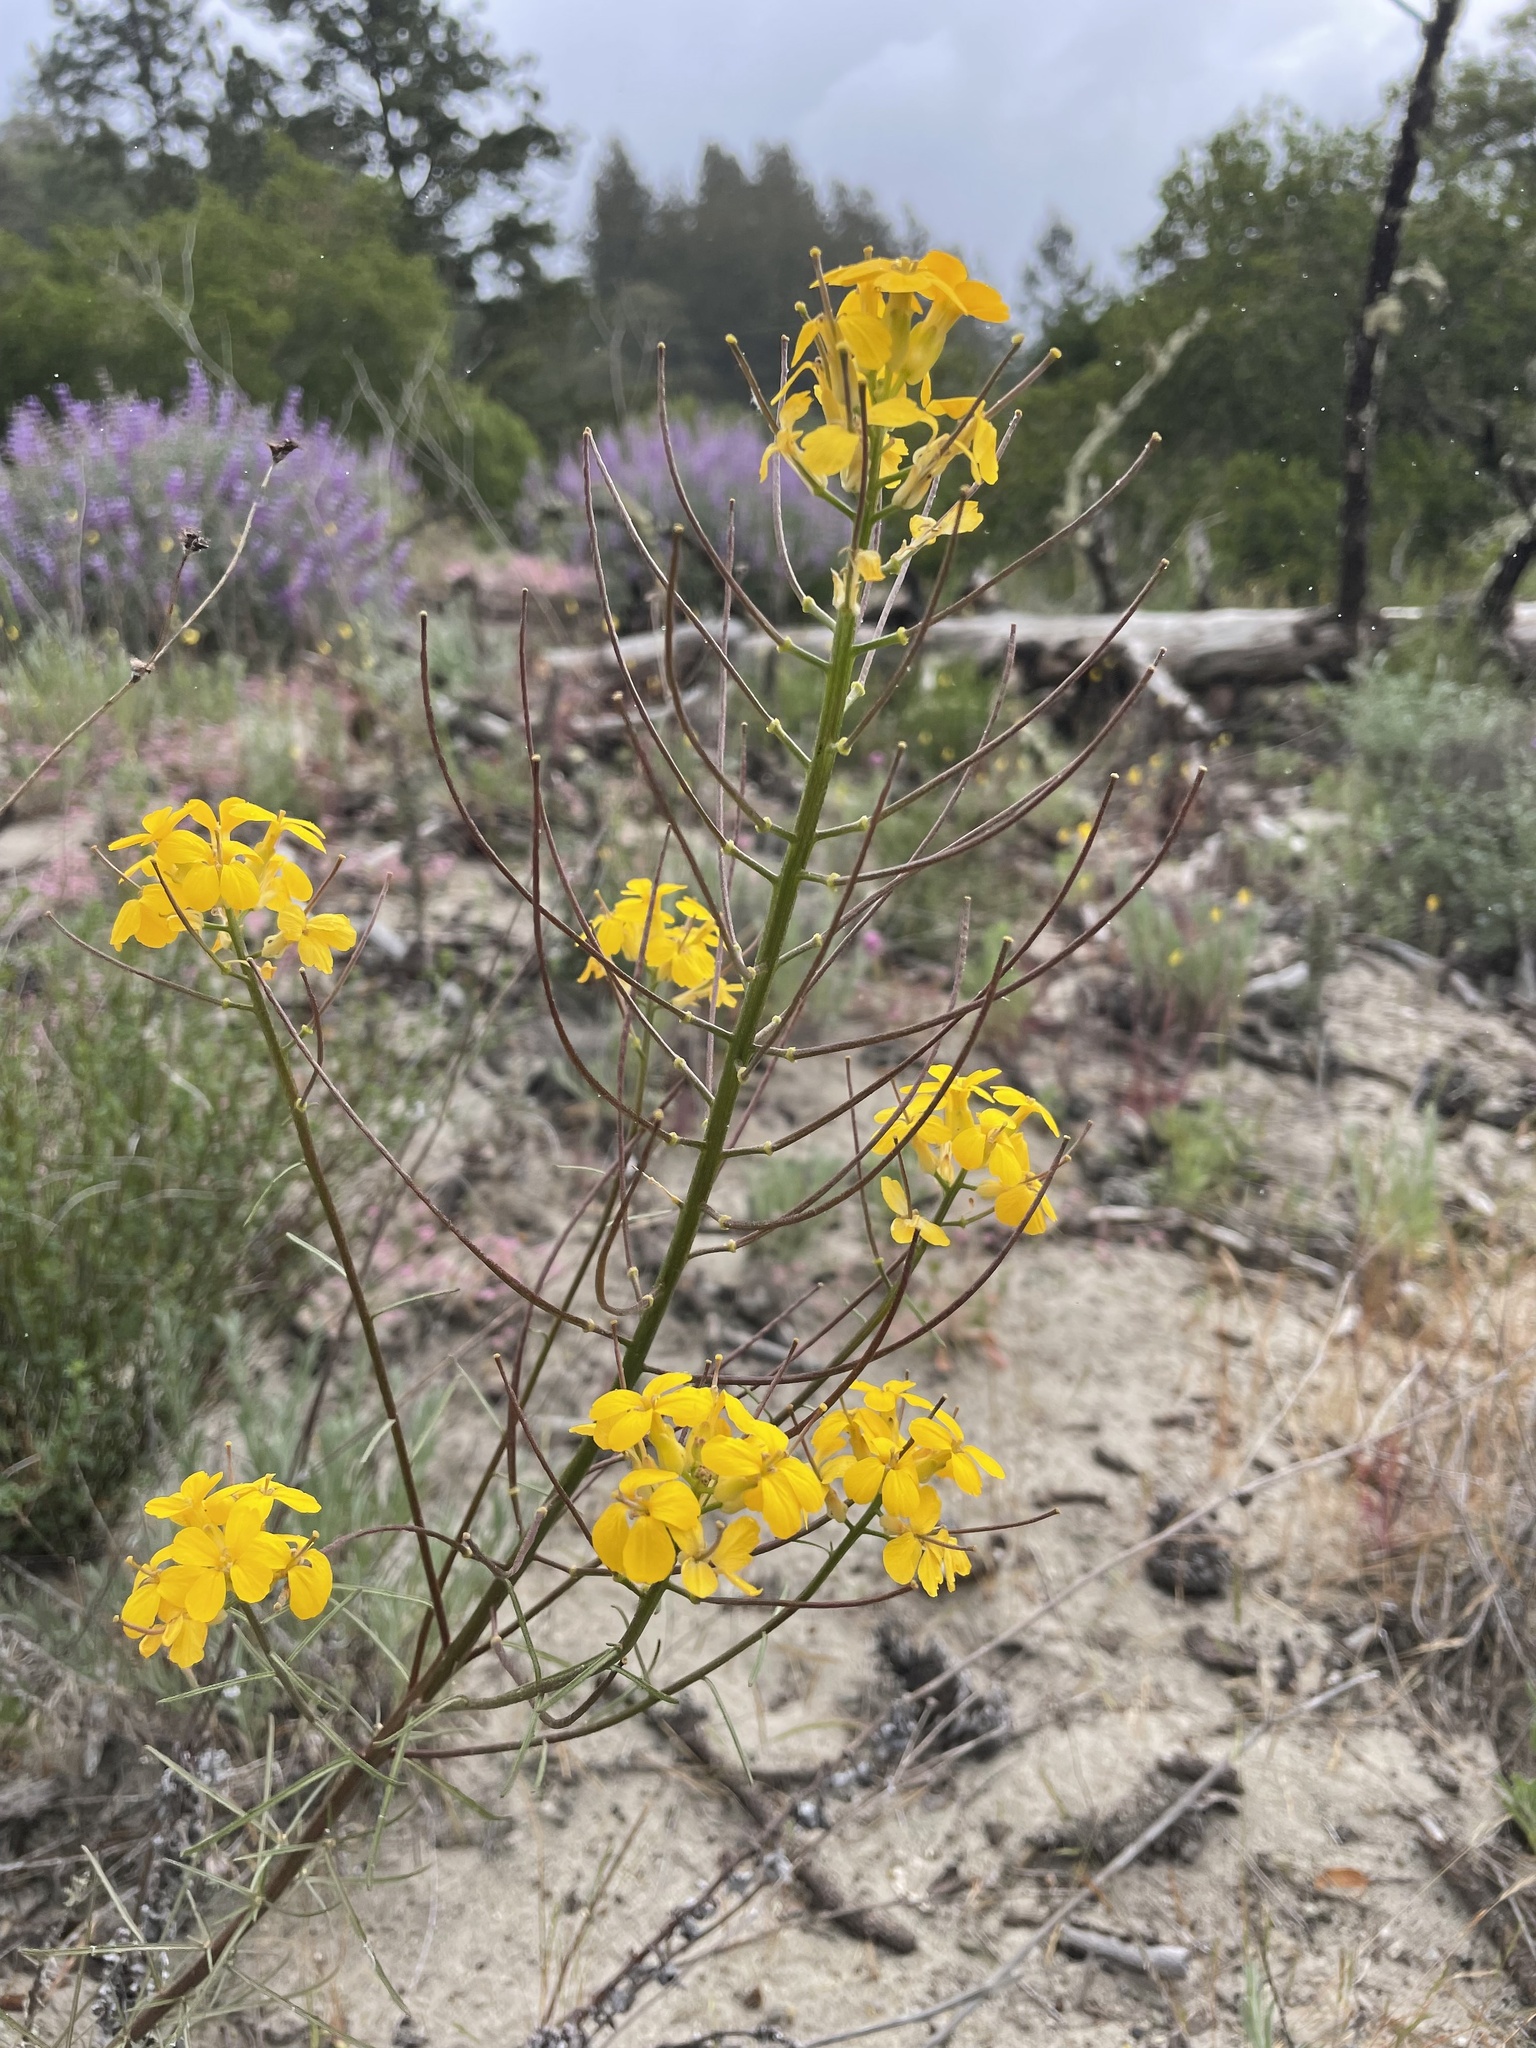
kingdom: Plantae
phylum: Tracheophyta
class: Magnoliopsida
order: Brassicales
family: Brassicaceae
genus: Erysimum
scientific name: Erysimum teretifolium
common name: Ben lomond wallflower
